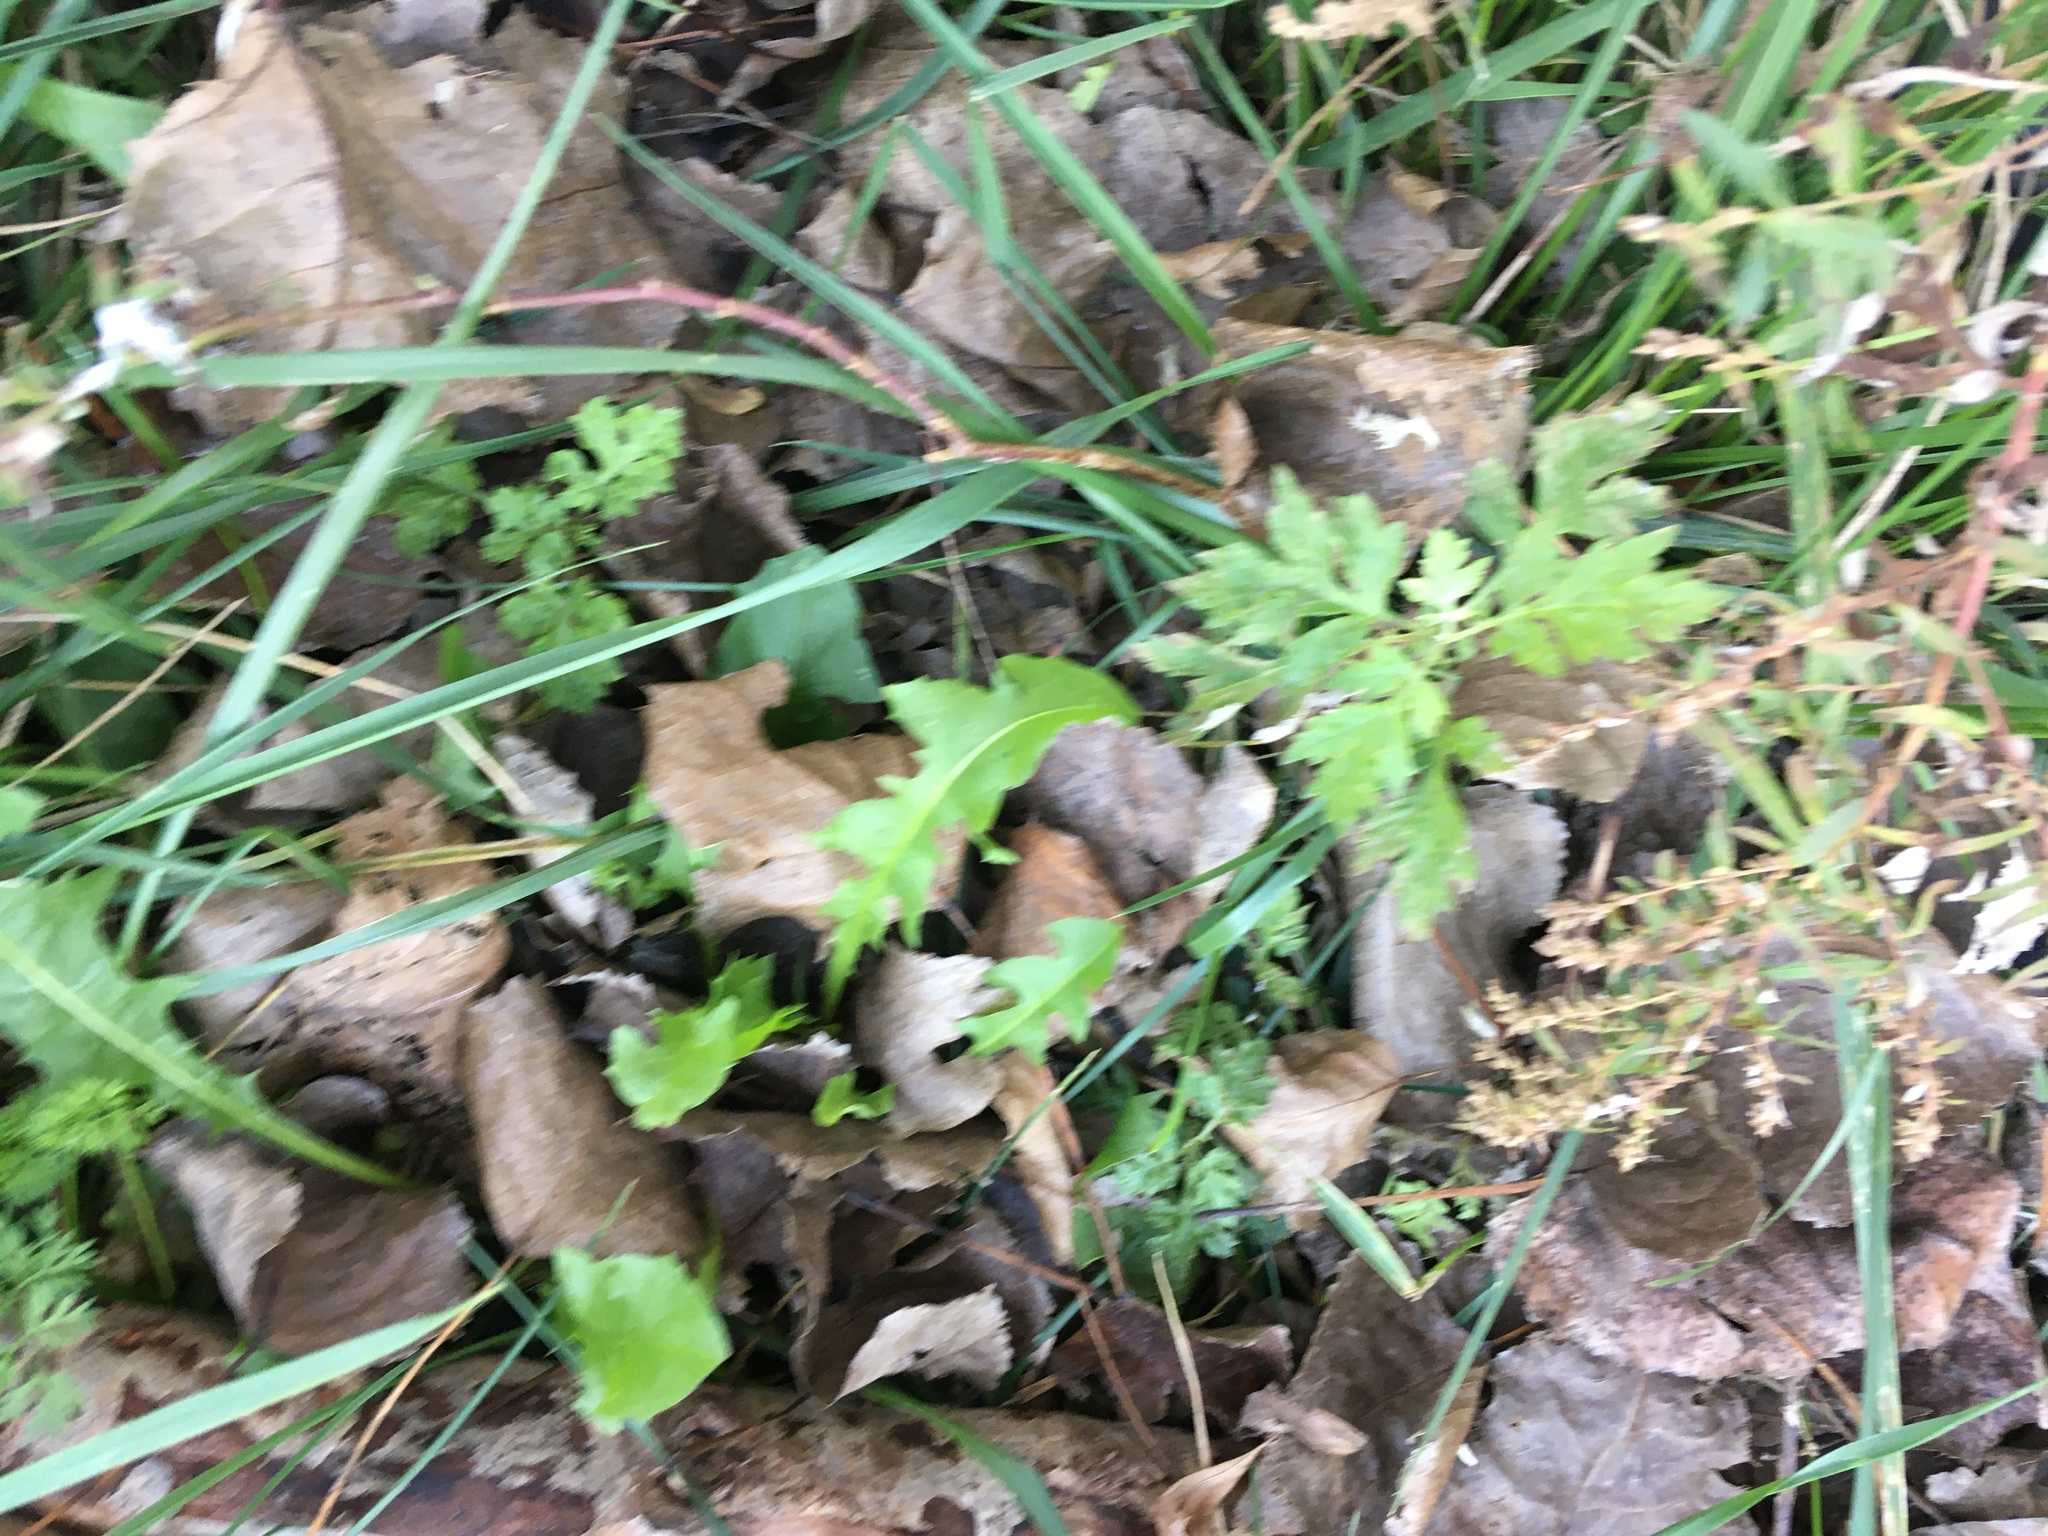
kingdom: Plantae
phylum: Tracheophyta
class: Magnoliopsida
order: Asterales
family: Asteraceae
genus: Artemisia
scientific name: Artemisia vulgaris
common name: Mugwort
